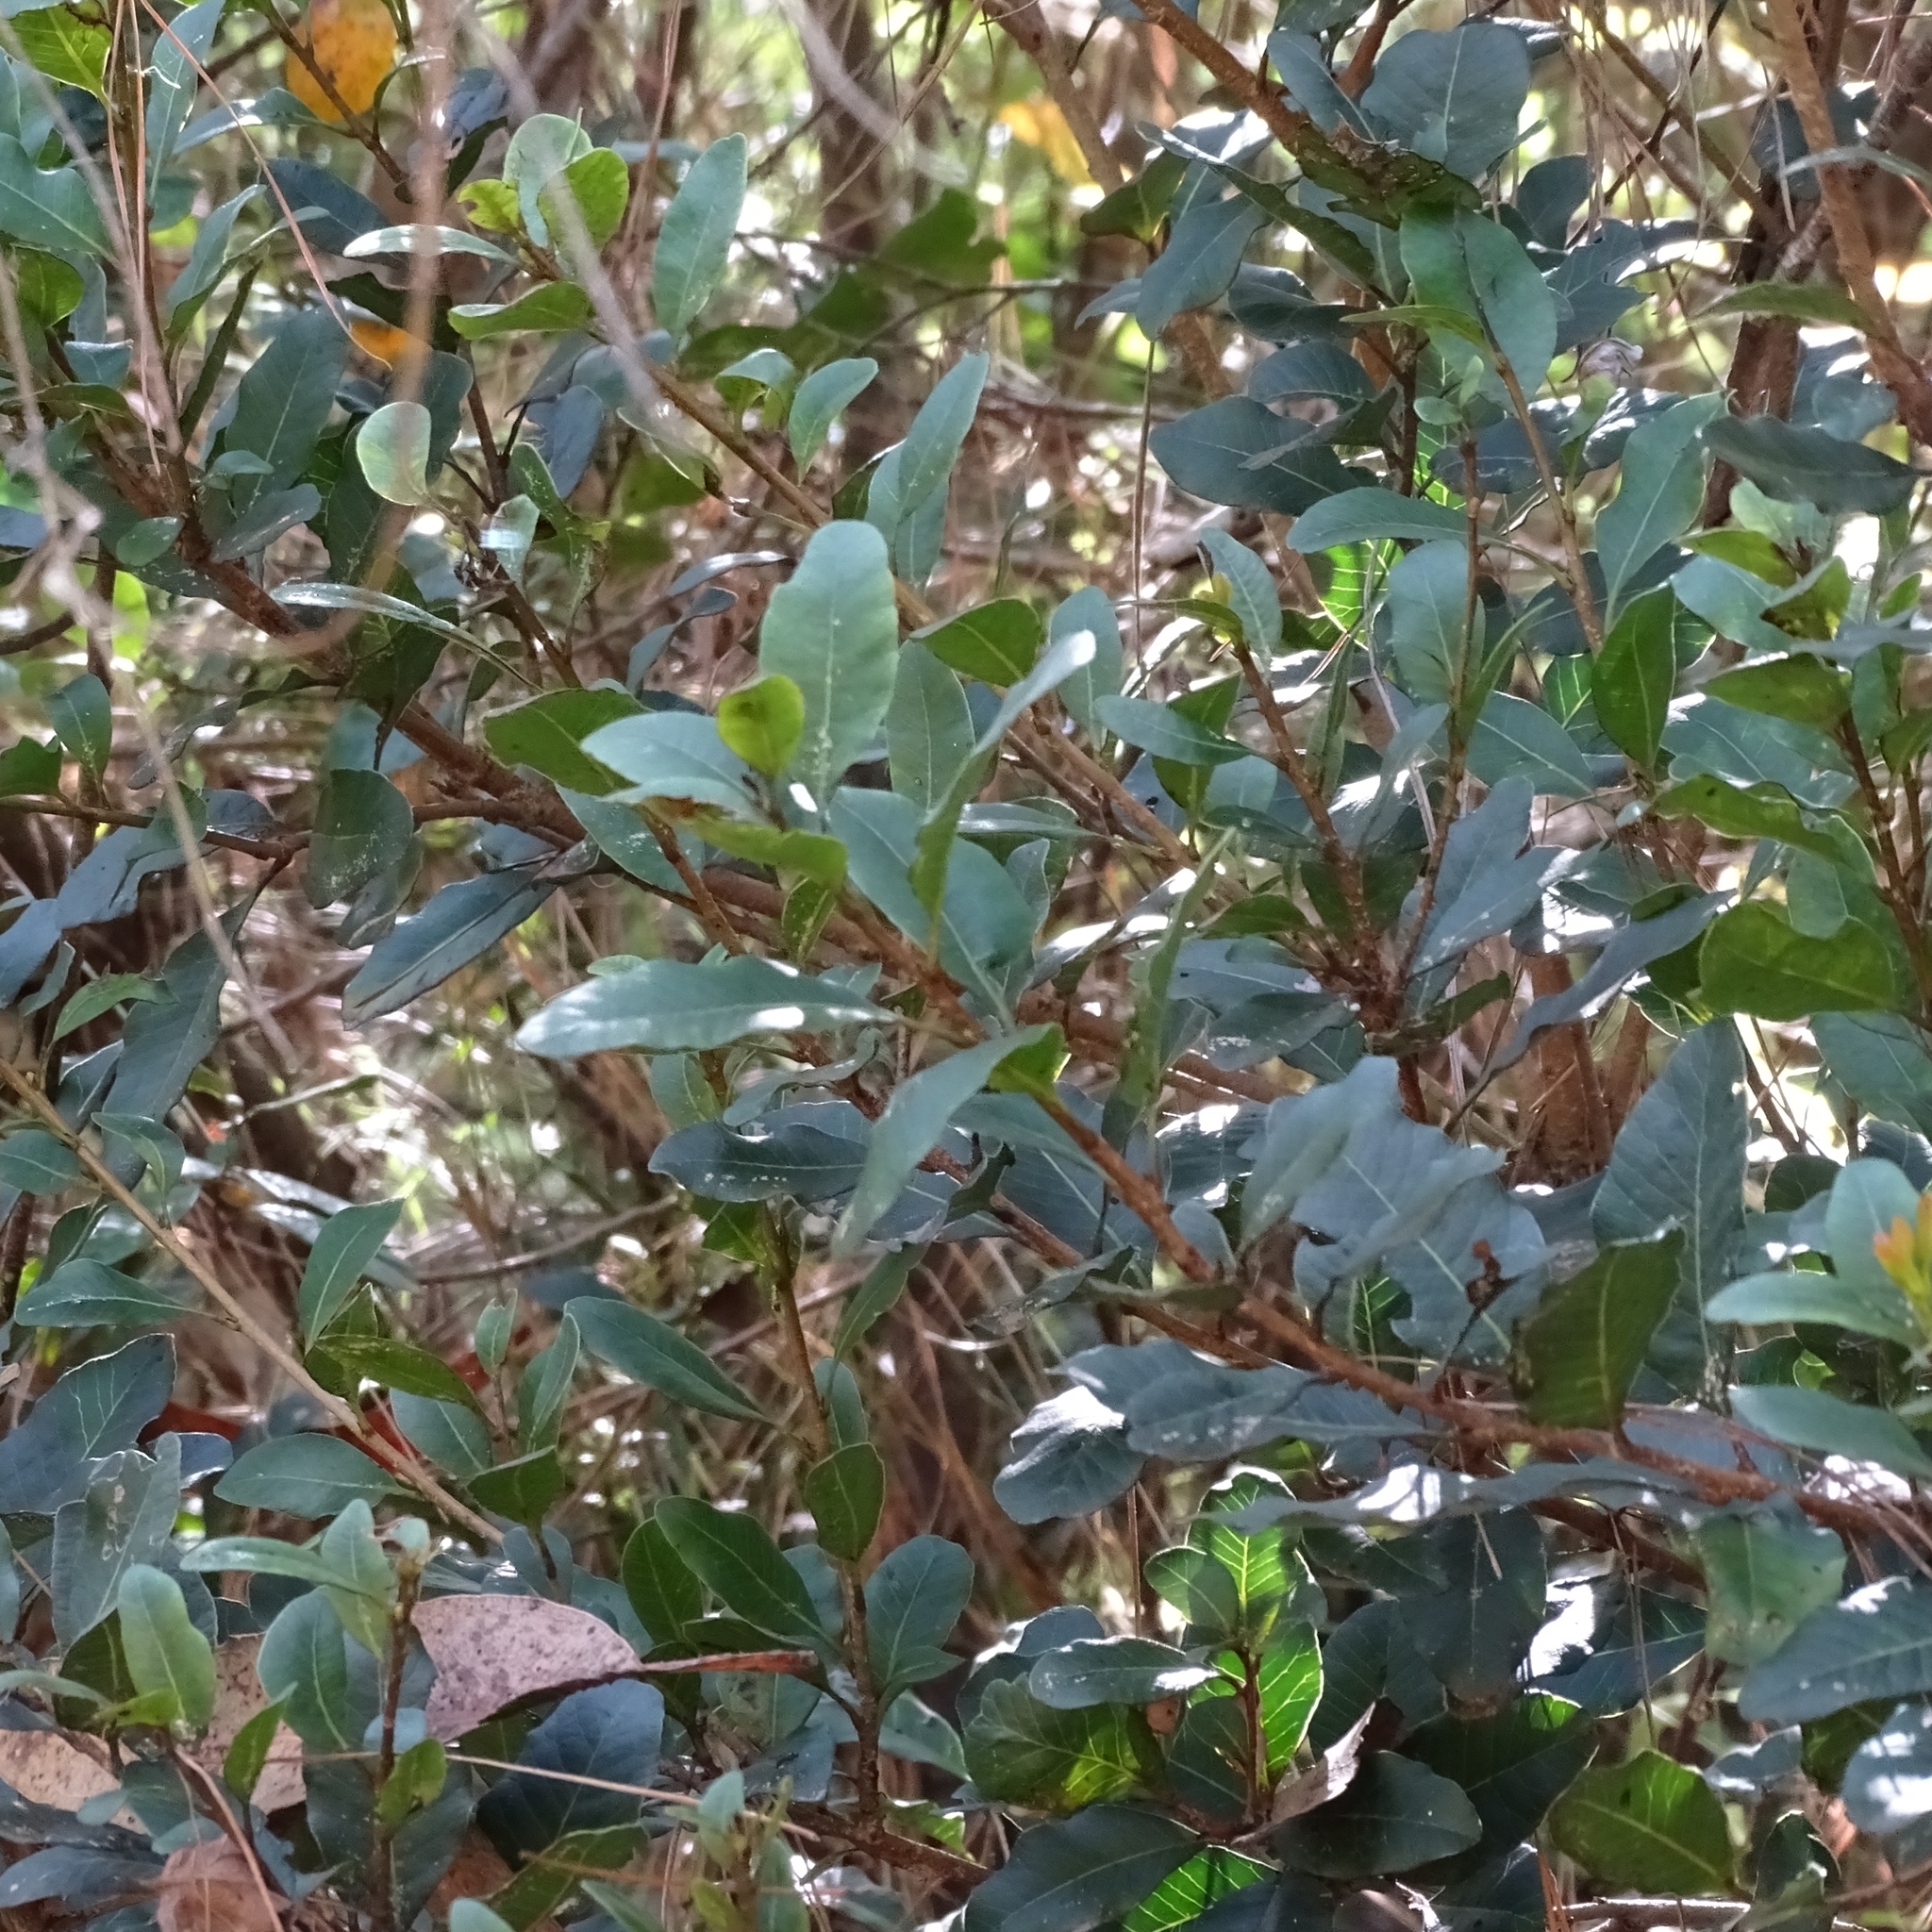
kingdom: Plantae
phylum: Tracheophyta
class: Magnoliopsida
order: Sapindales
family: Anacardiaceae
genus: Lithraea
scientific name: Lithraea caustica
